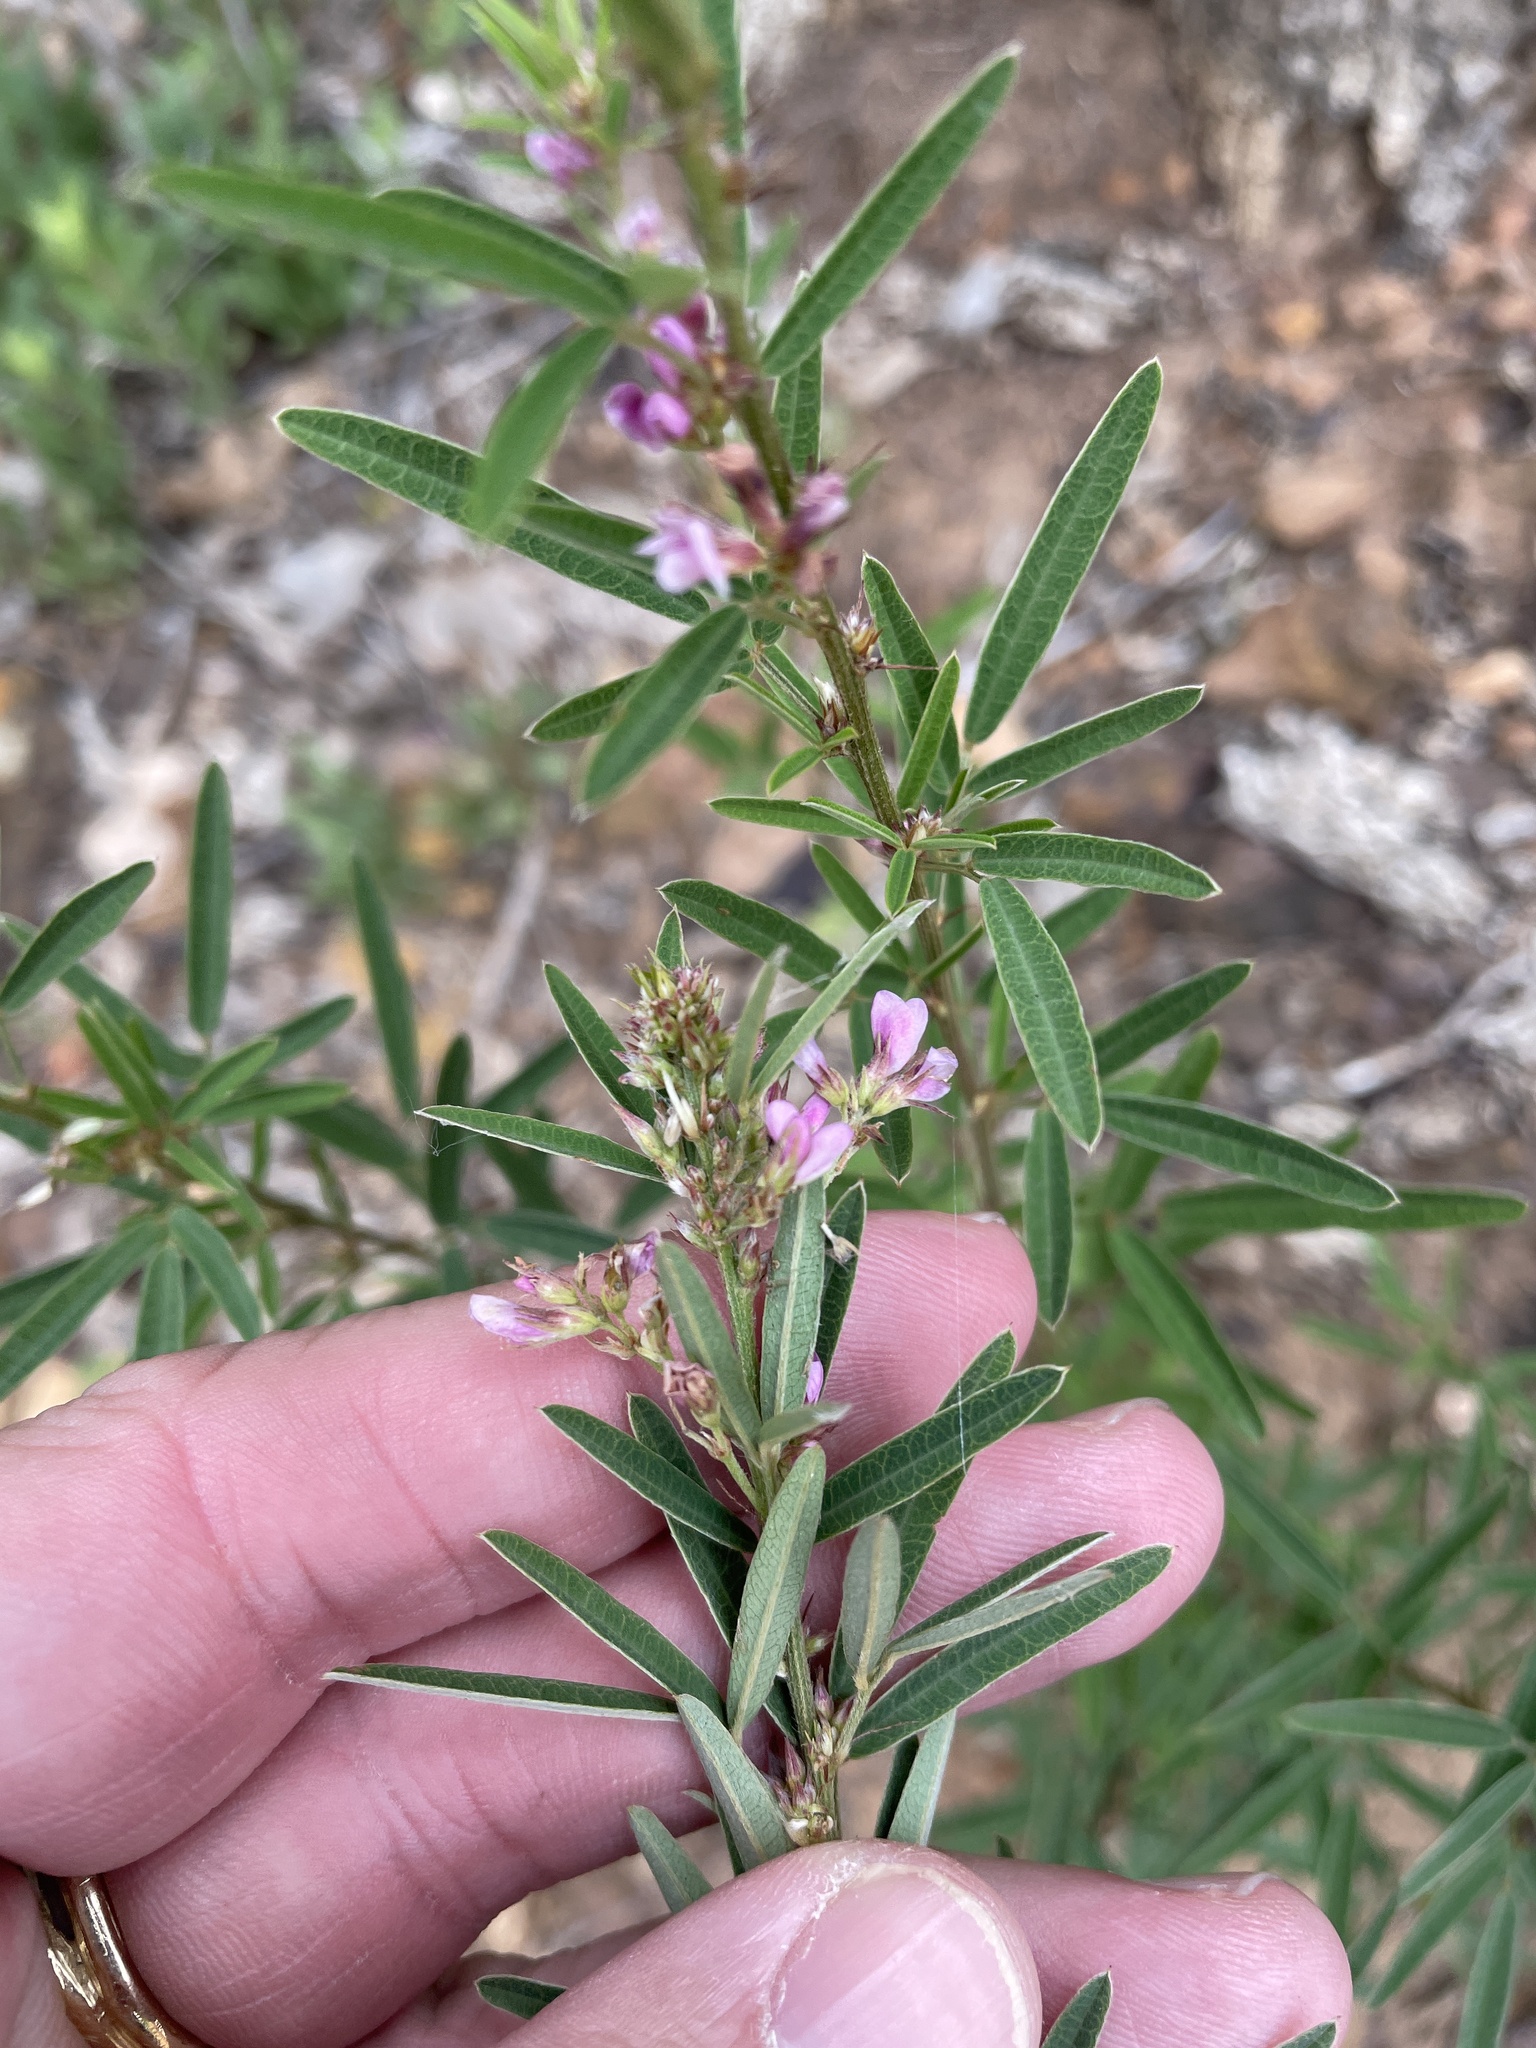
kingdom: Plantae
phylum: Tracheophyta
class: Magnoliopsida
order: Fabales
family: Fabaceae
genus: Lespedeza
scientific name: Lespedeza virginica
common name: Slender bush-clover
